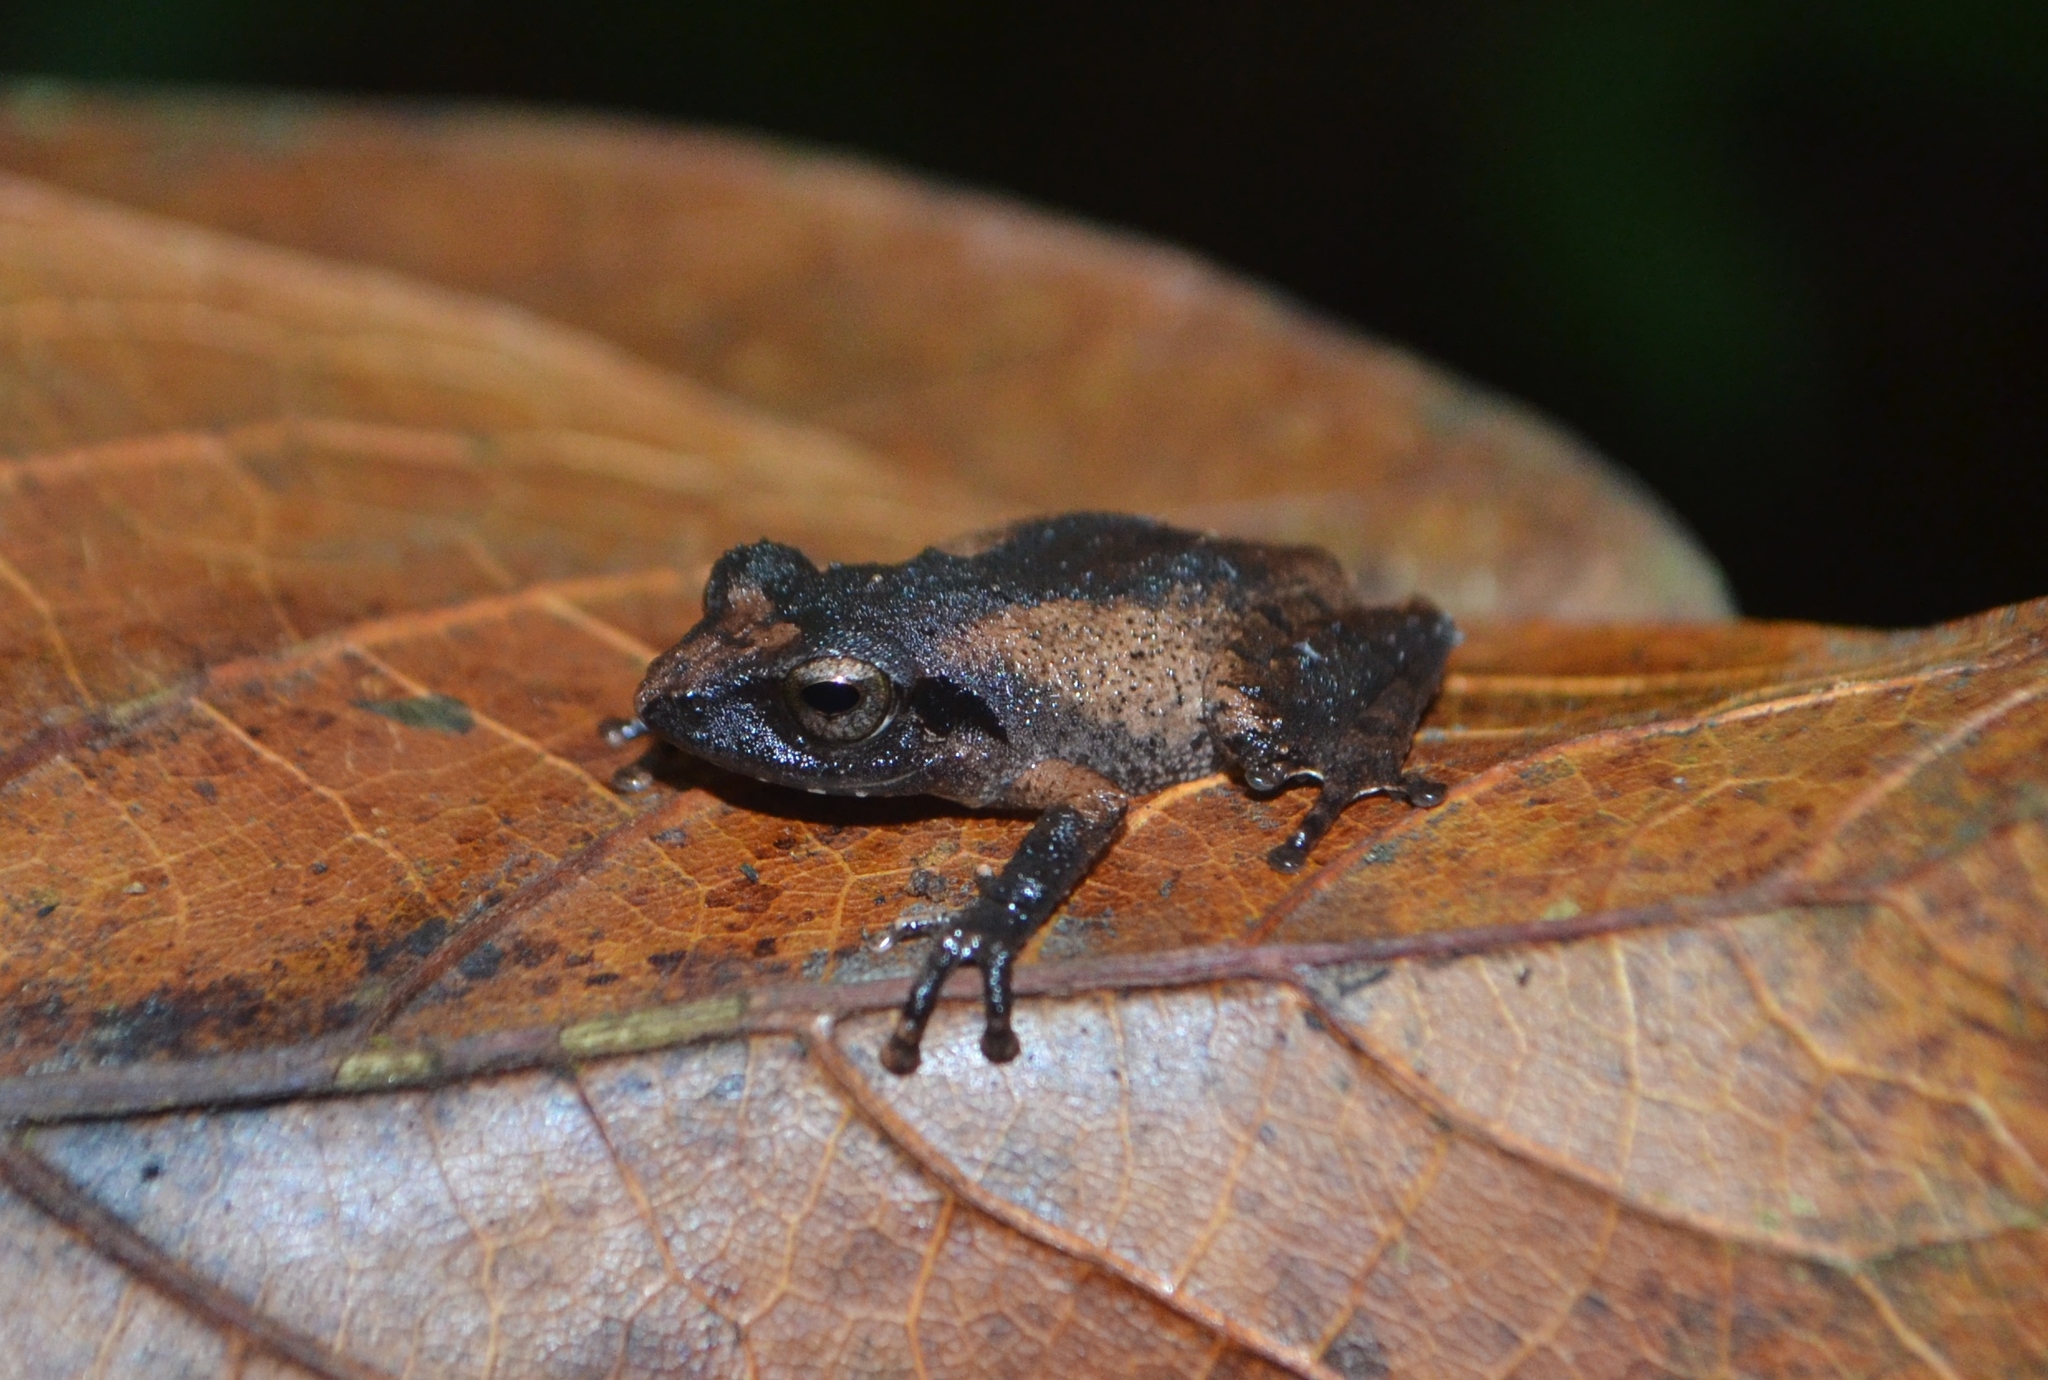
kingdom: Animalia
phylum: Chordata
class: Amphibia
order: Anura
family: Rhacophoridae
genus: Pseudophilautus
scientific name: Pseudophilautus wynaadensis
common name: Dark-eared bush frog
